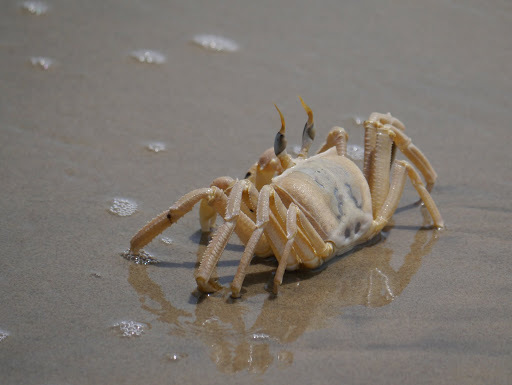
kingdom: Animalia
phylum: Arthropoda
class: Malacostraca
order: Decapoda
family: Ocypodidae
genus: Ocypode
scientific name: Ocypode cursor
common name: Tufted ghost crab
